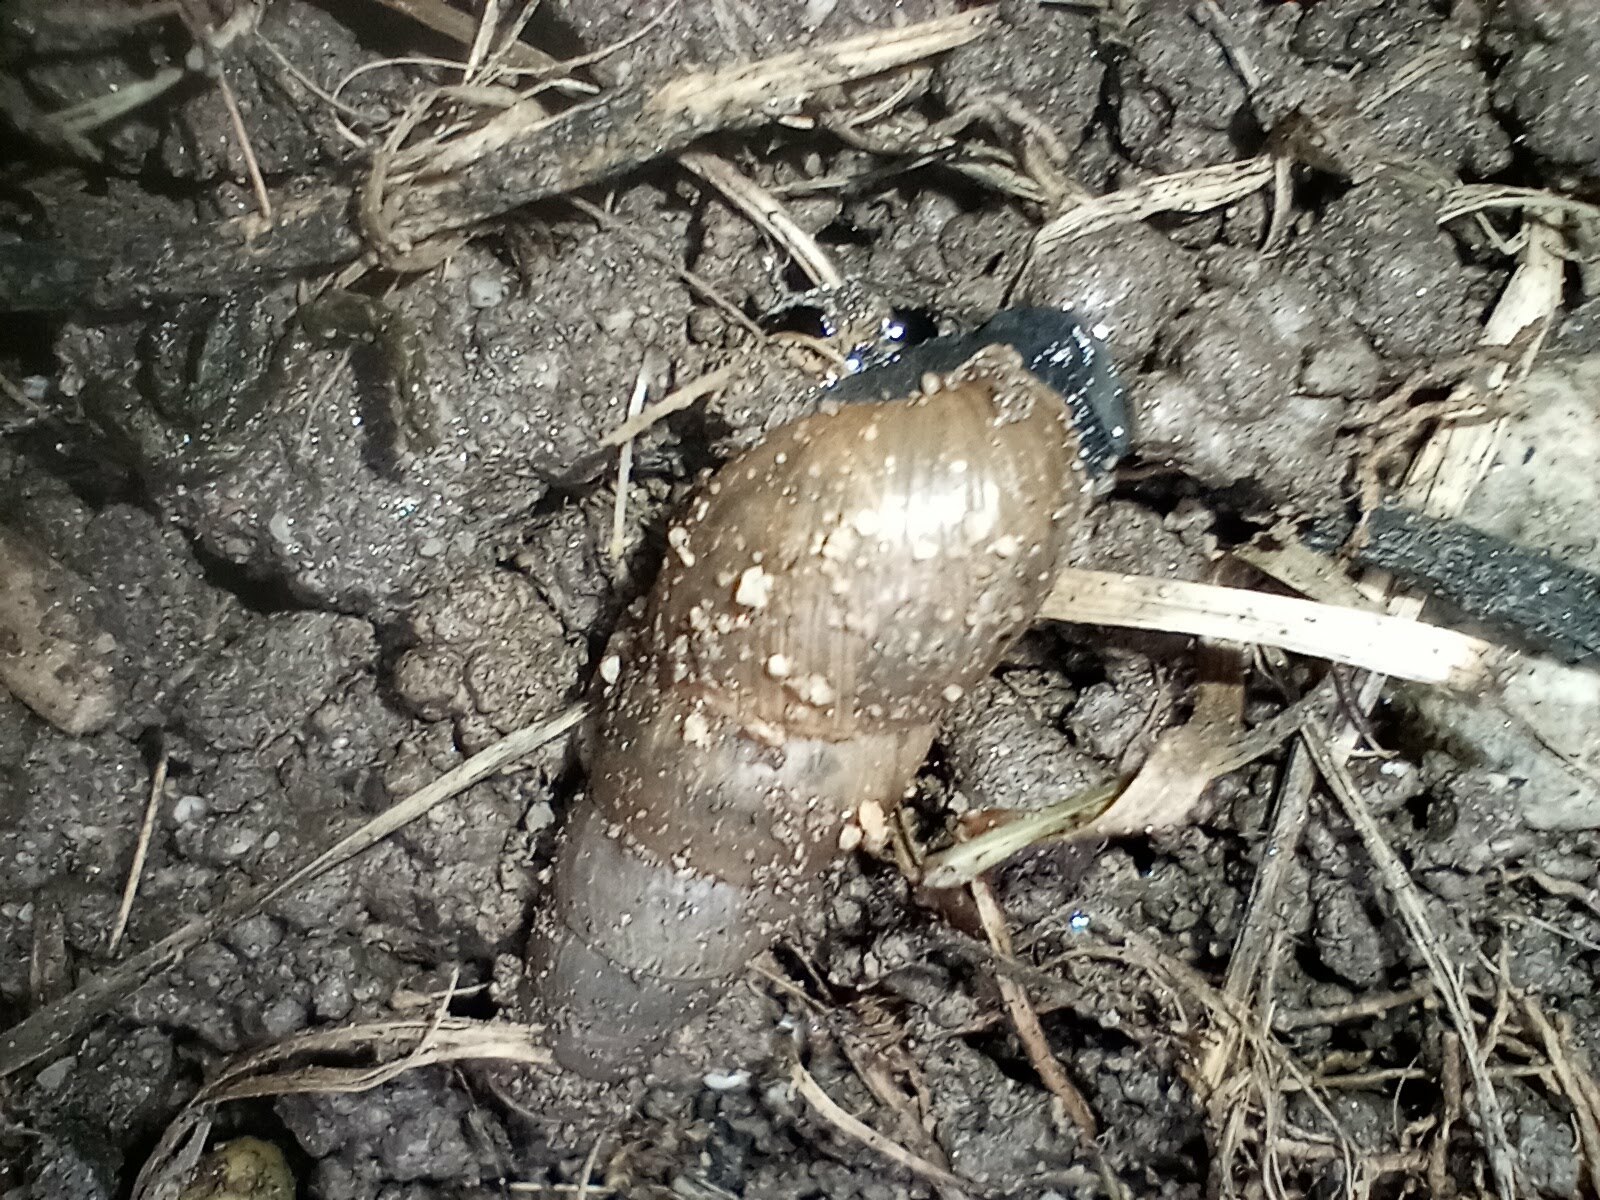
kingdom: Animalia
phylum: Mollusca
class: Gastropoda
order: Stylommatophora
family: Achatinidae
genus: Rumina
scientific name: Rumina decollata
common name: Decollate snail
